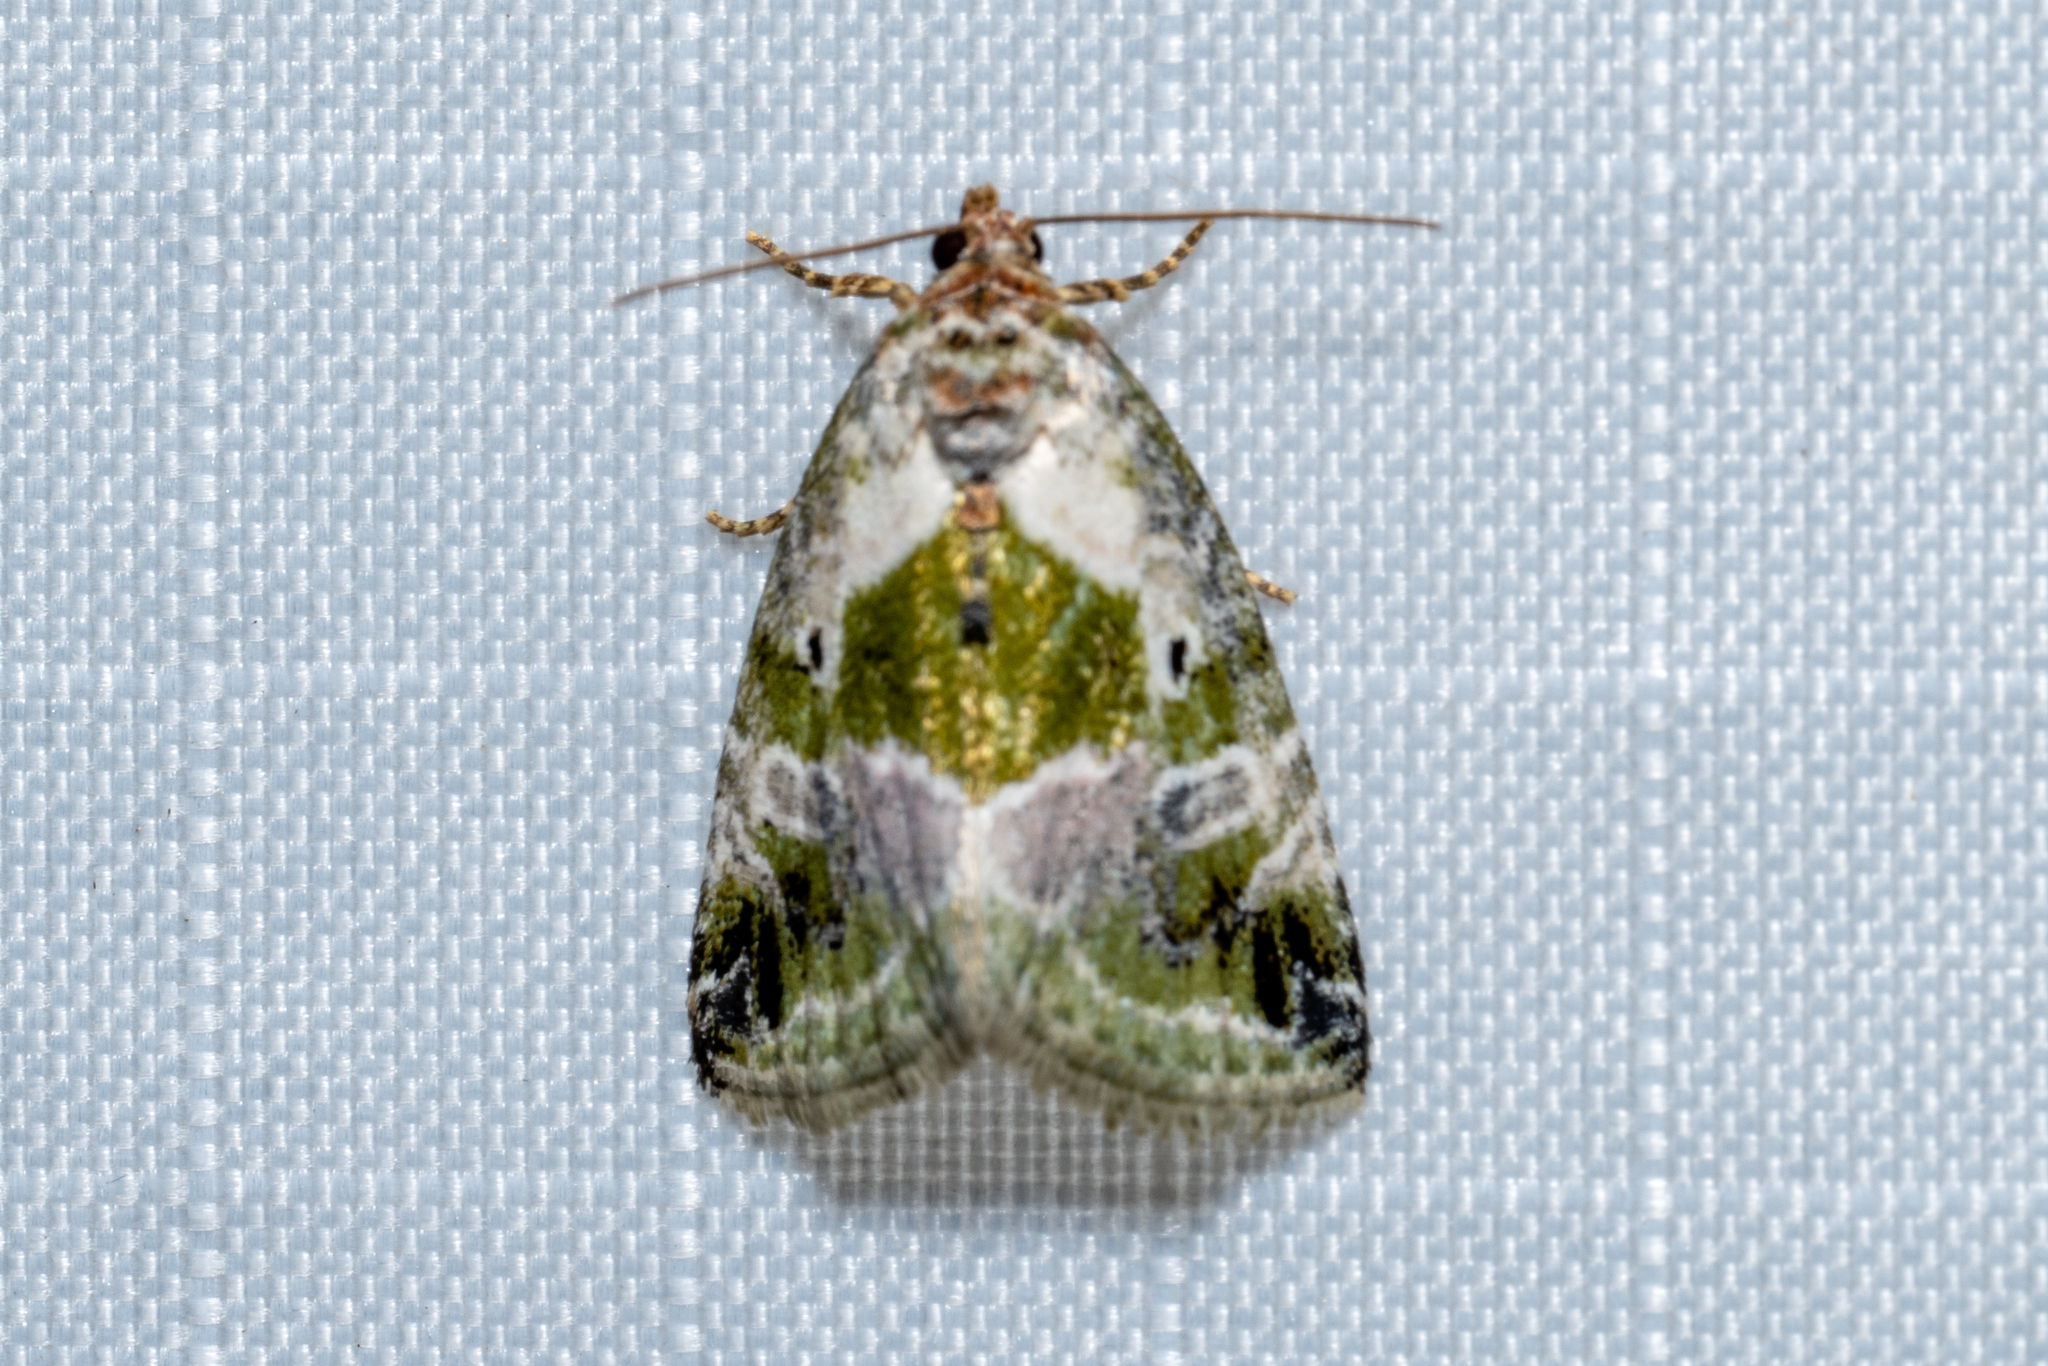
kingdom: Animalia
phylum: Arthropoda
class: Insecta
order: Lepidoptera
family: Noctuidae
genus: Maliattha
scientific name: Maliattha synochitis
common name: Black-dotted glyph
